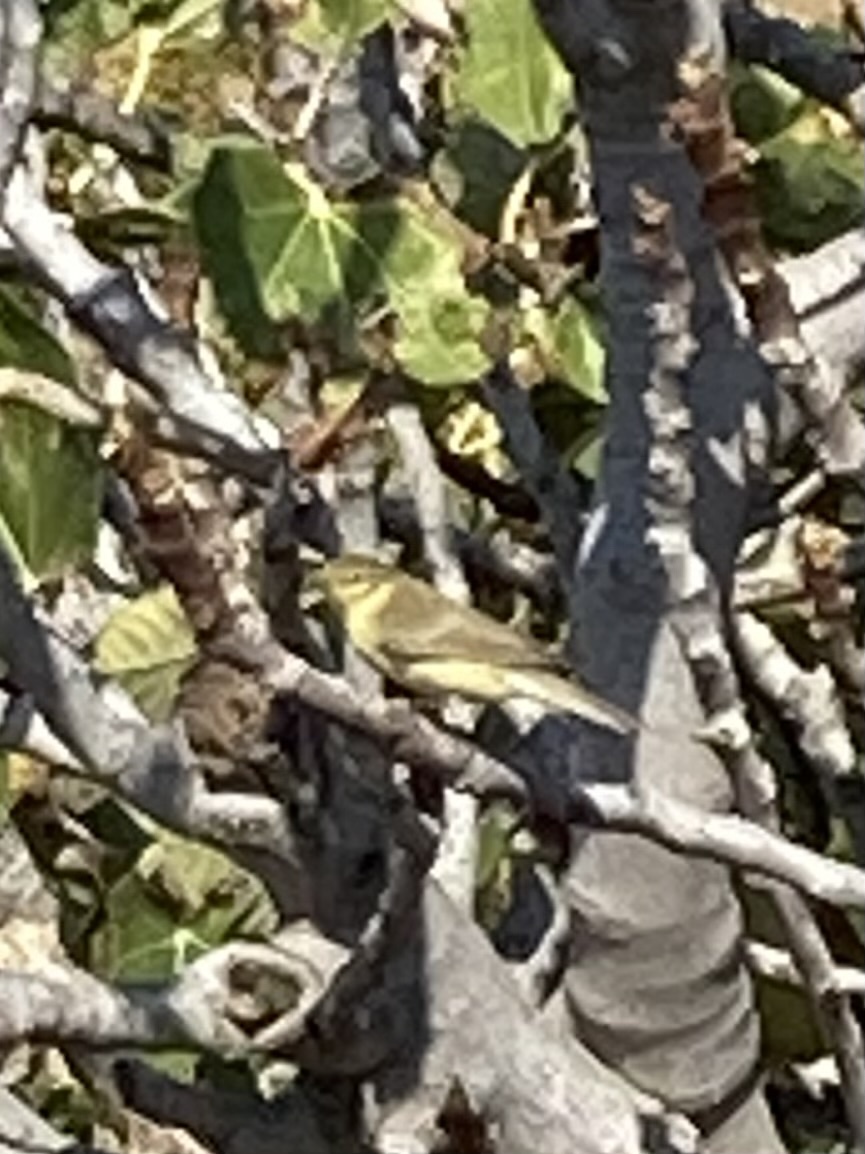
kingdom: Animalia
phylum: Chordata
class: Aves
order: Passeriformes
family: Phylloscopidae
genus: Phylloscopus
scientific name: Phylloscopus collybita
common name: Common chiffchaff
